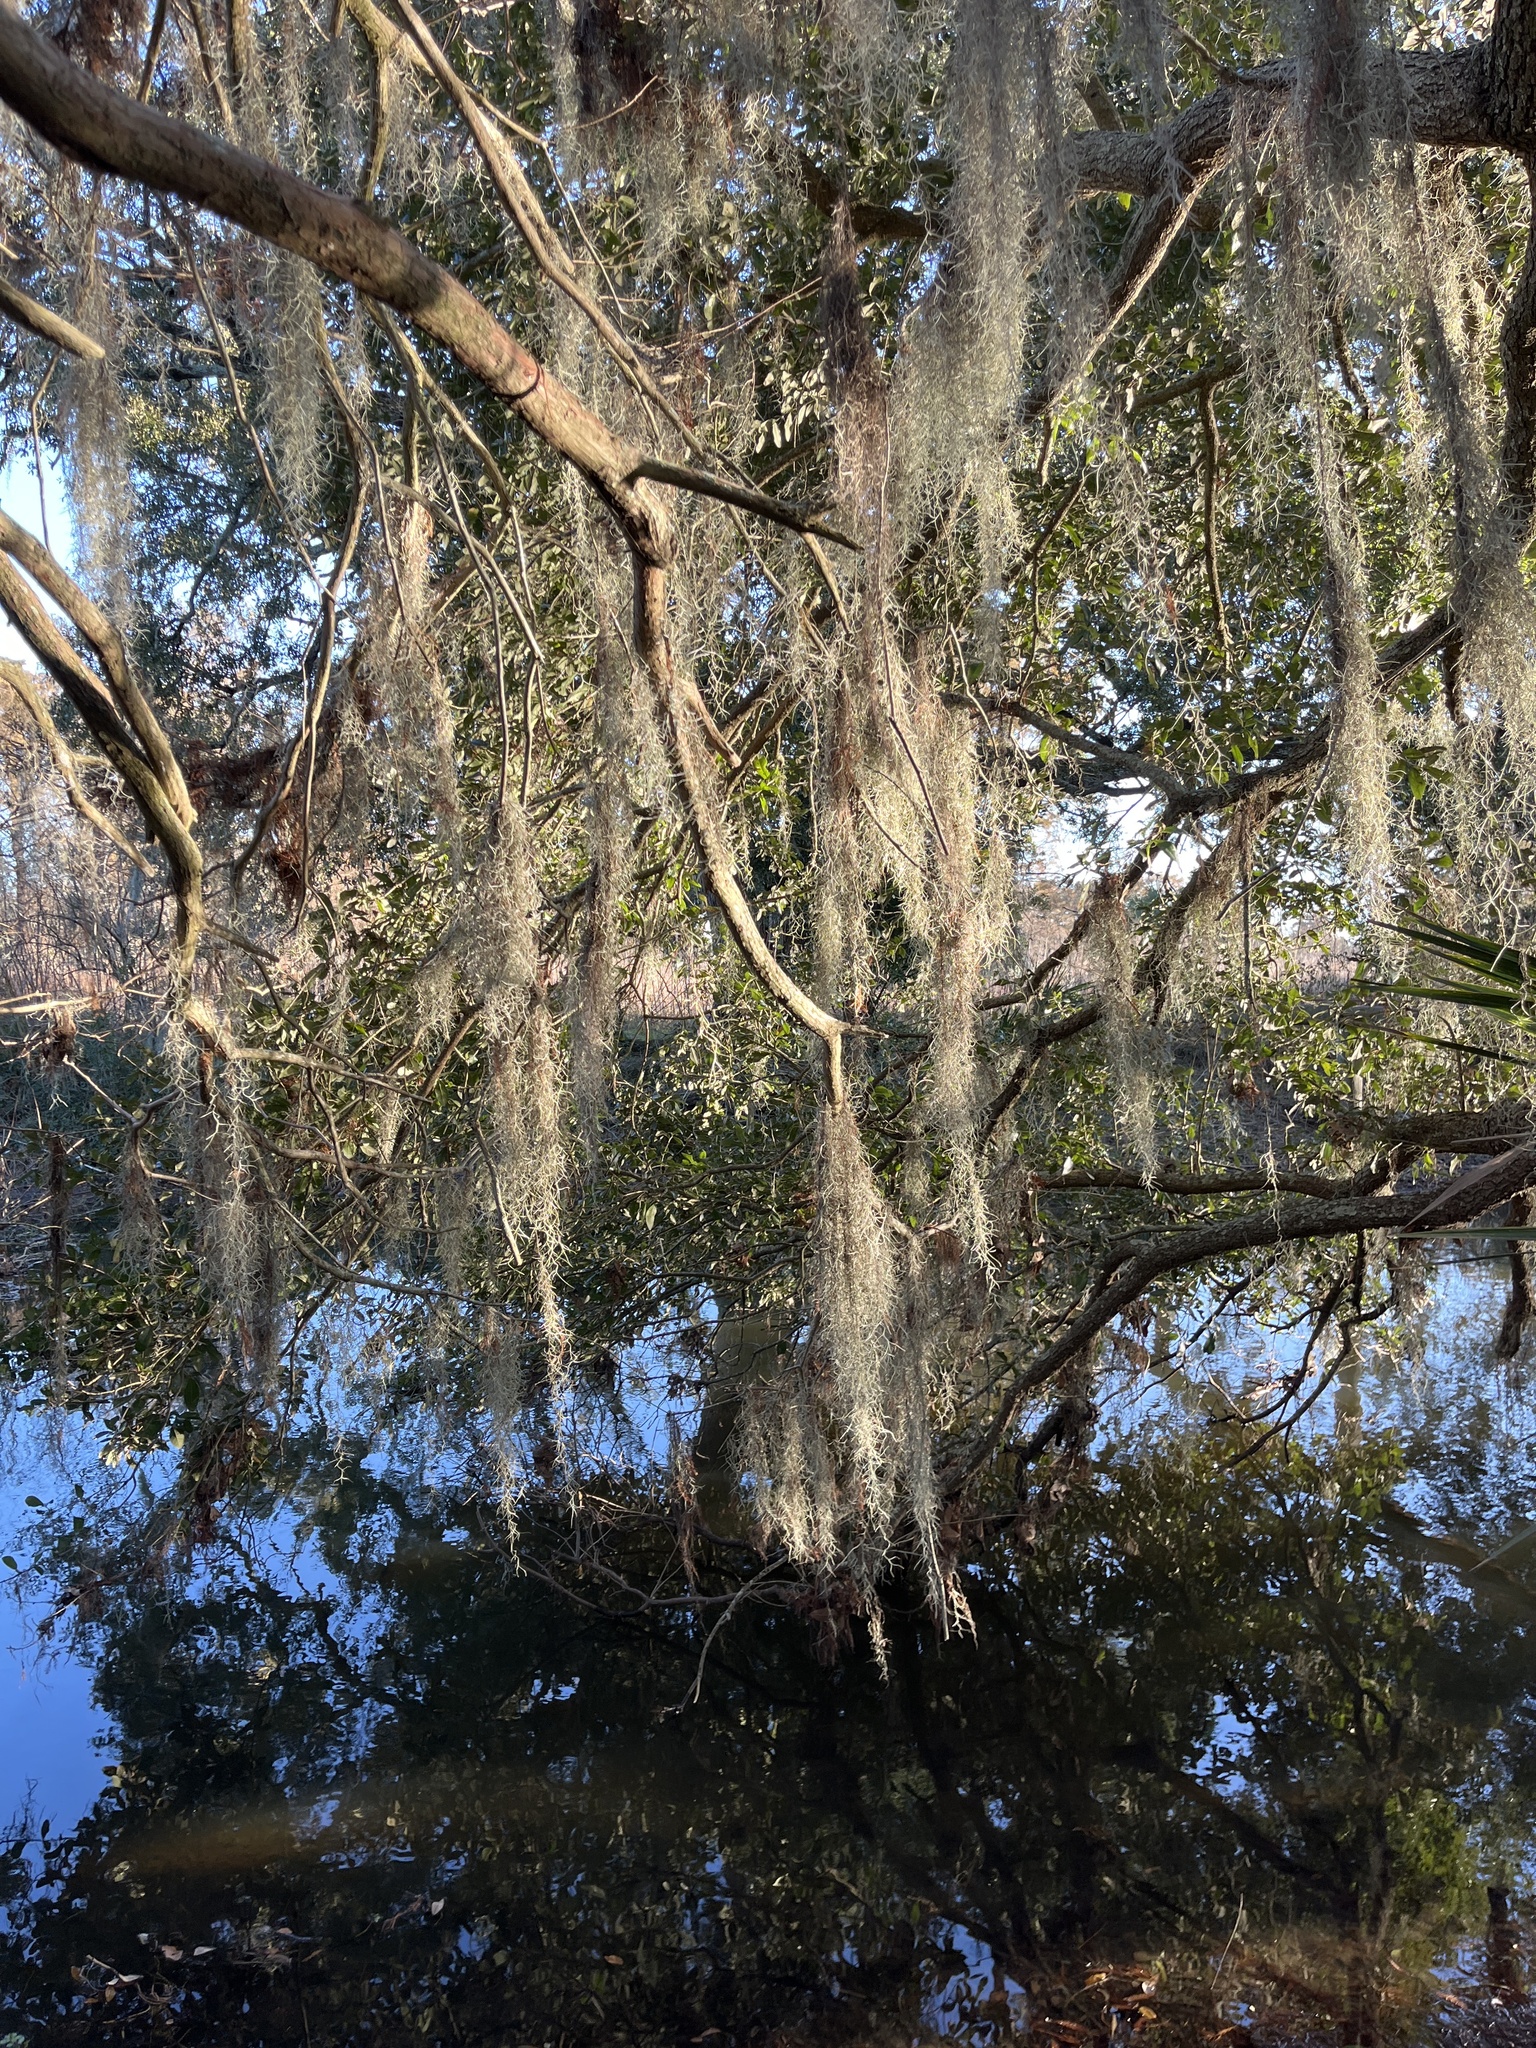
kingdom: Plantae
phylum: Tracheophyta
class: Liliopsida
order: Poales
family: Bromeliaceae
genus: Tillandsia
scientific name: Tillandsia usneoides
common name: Spanish moss
